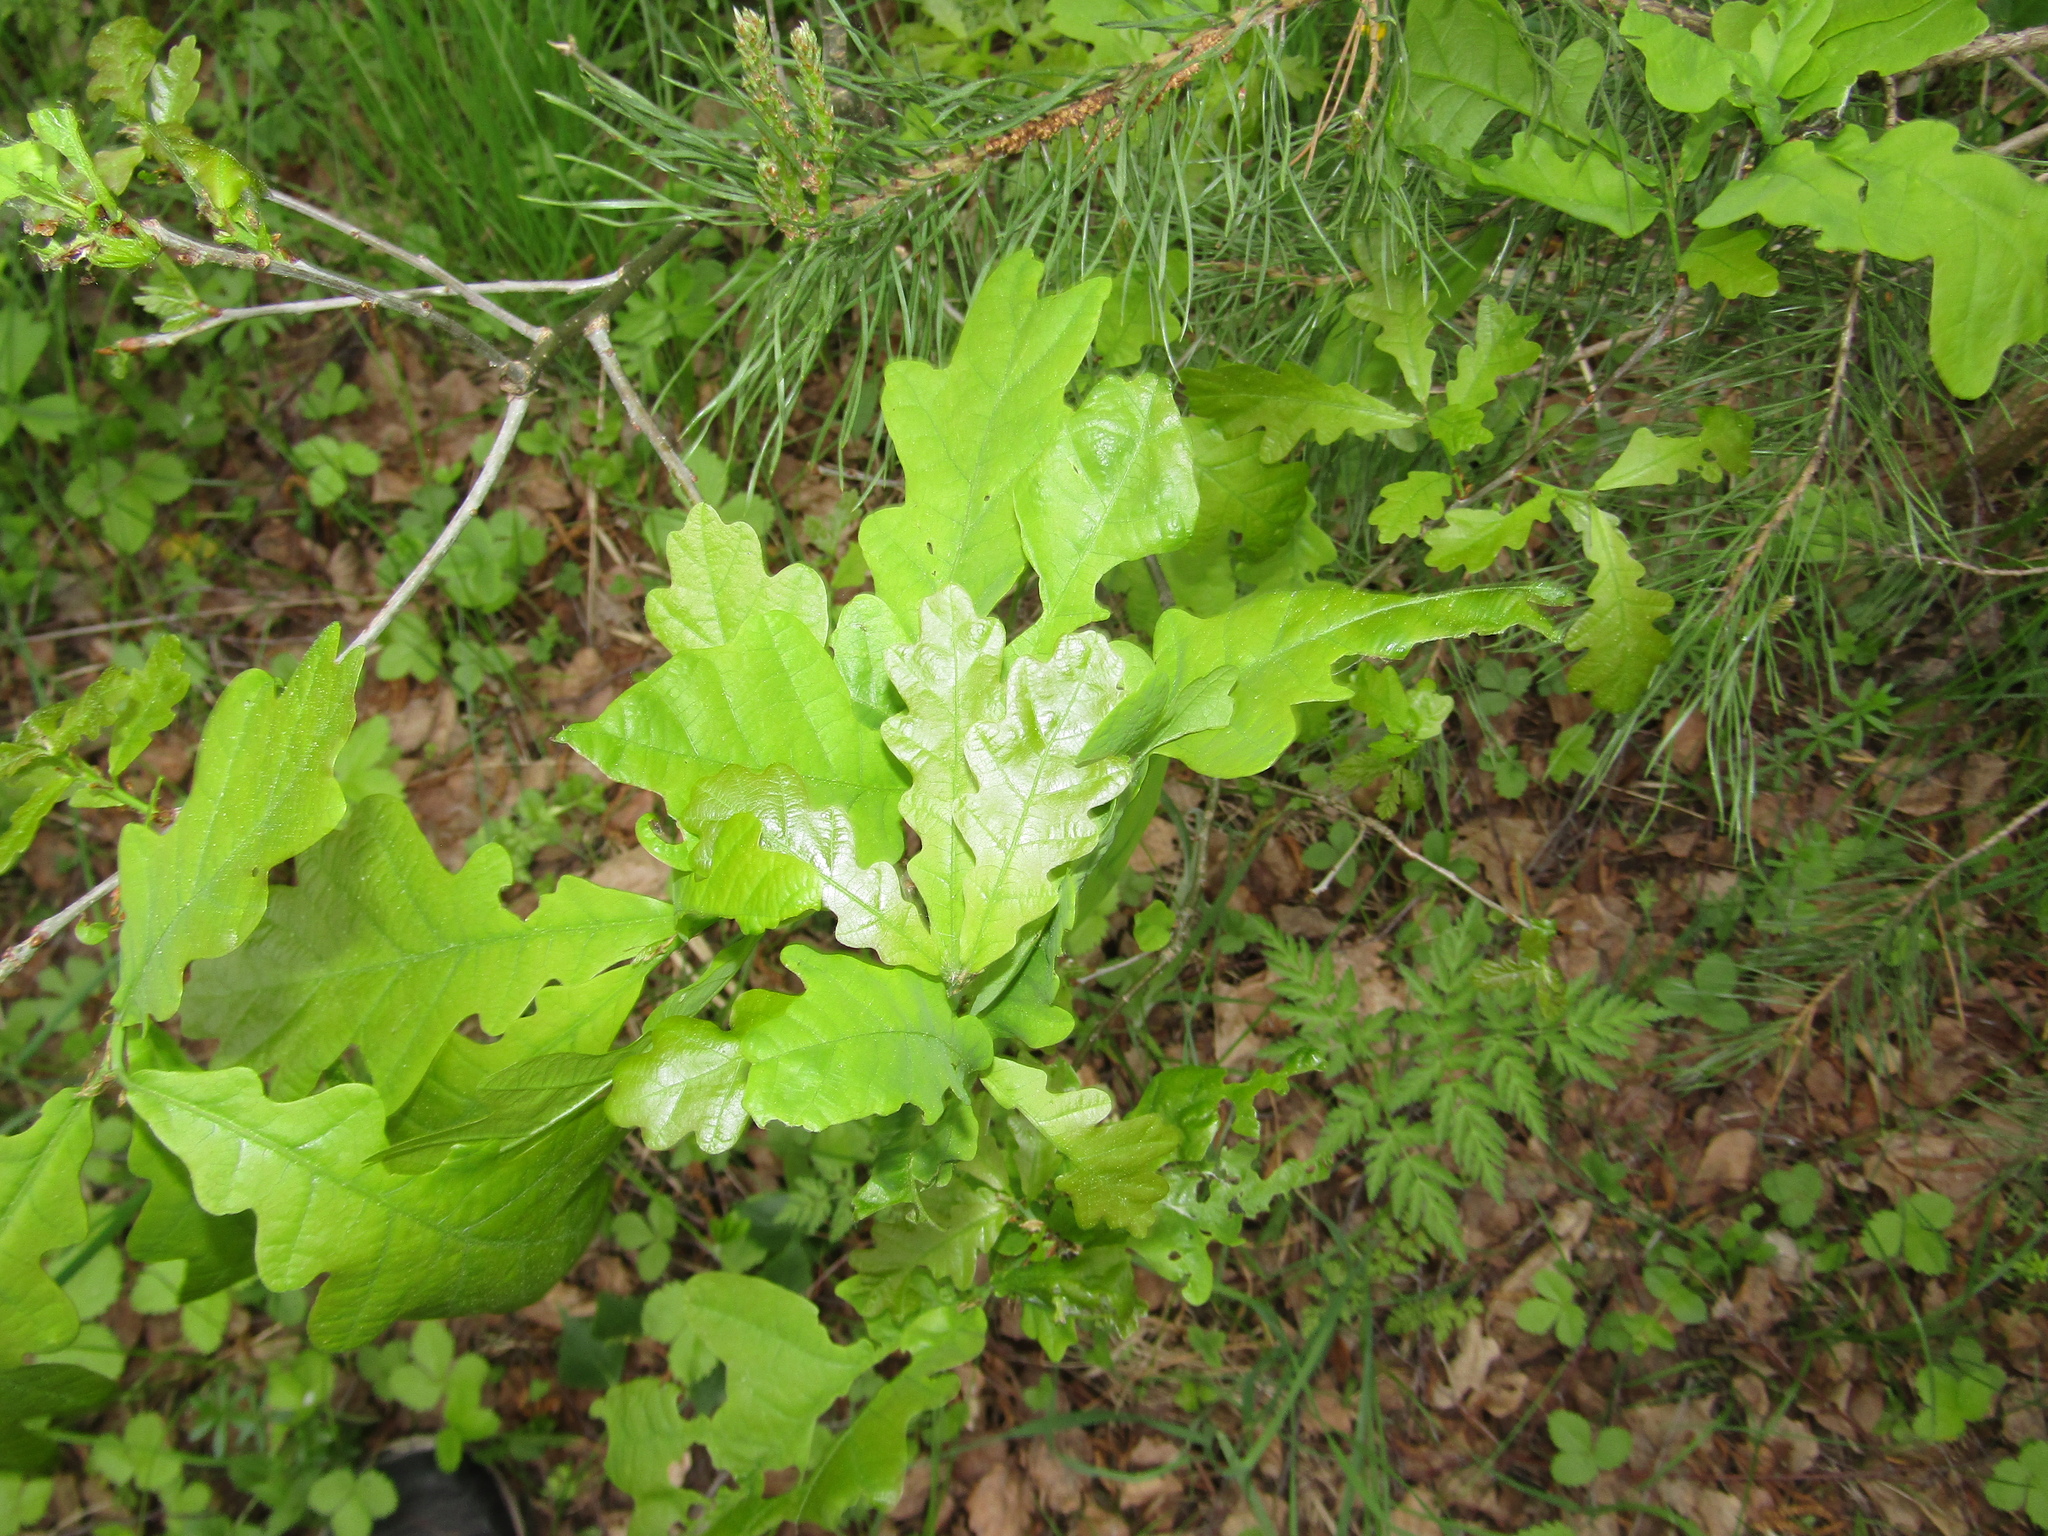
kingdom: Plantae
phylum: Tracheophyta
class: Magnoliopsida
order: Fagales
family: Fagaceae
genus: Quercus
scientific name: Quercus robur
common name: Pedunculate oak
